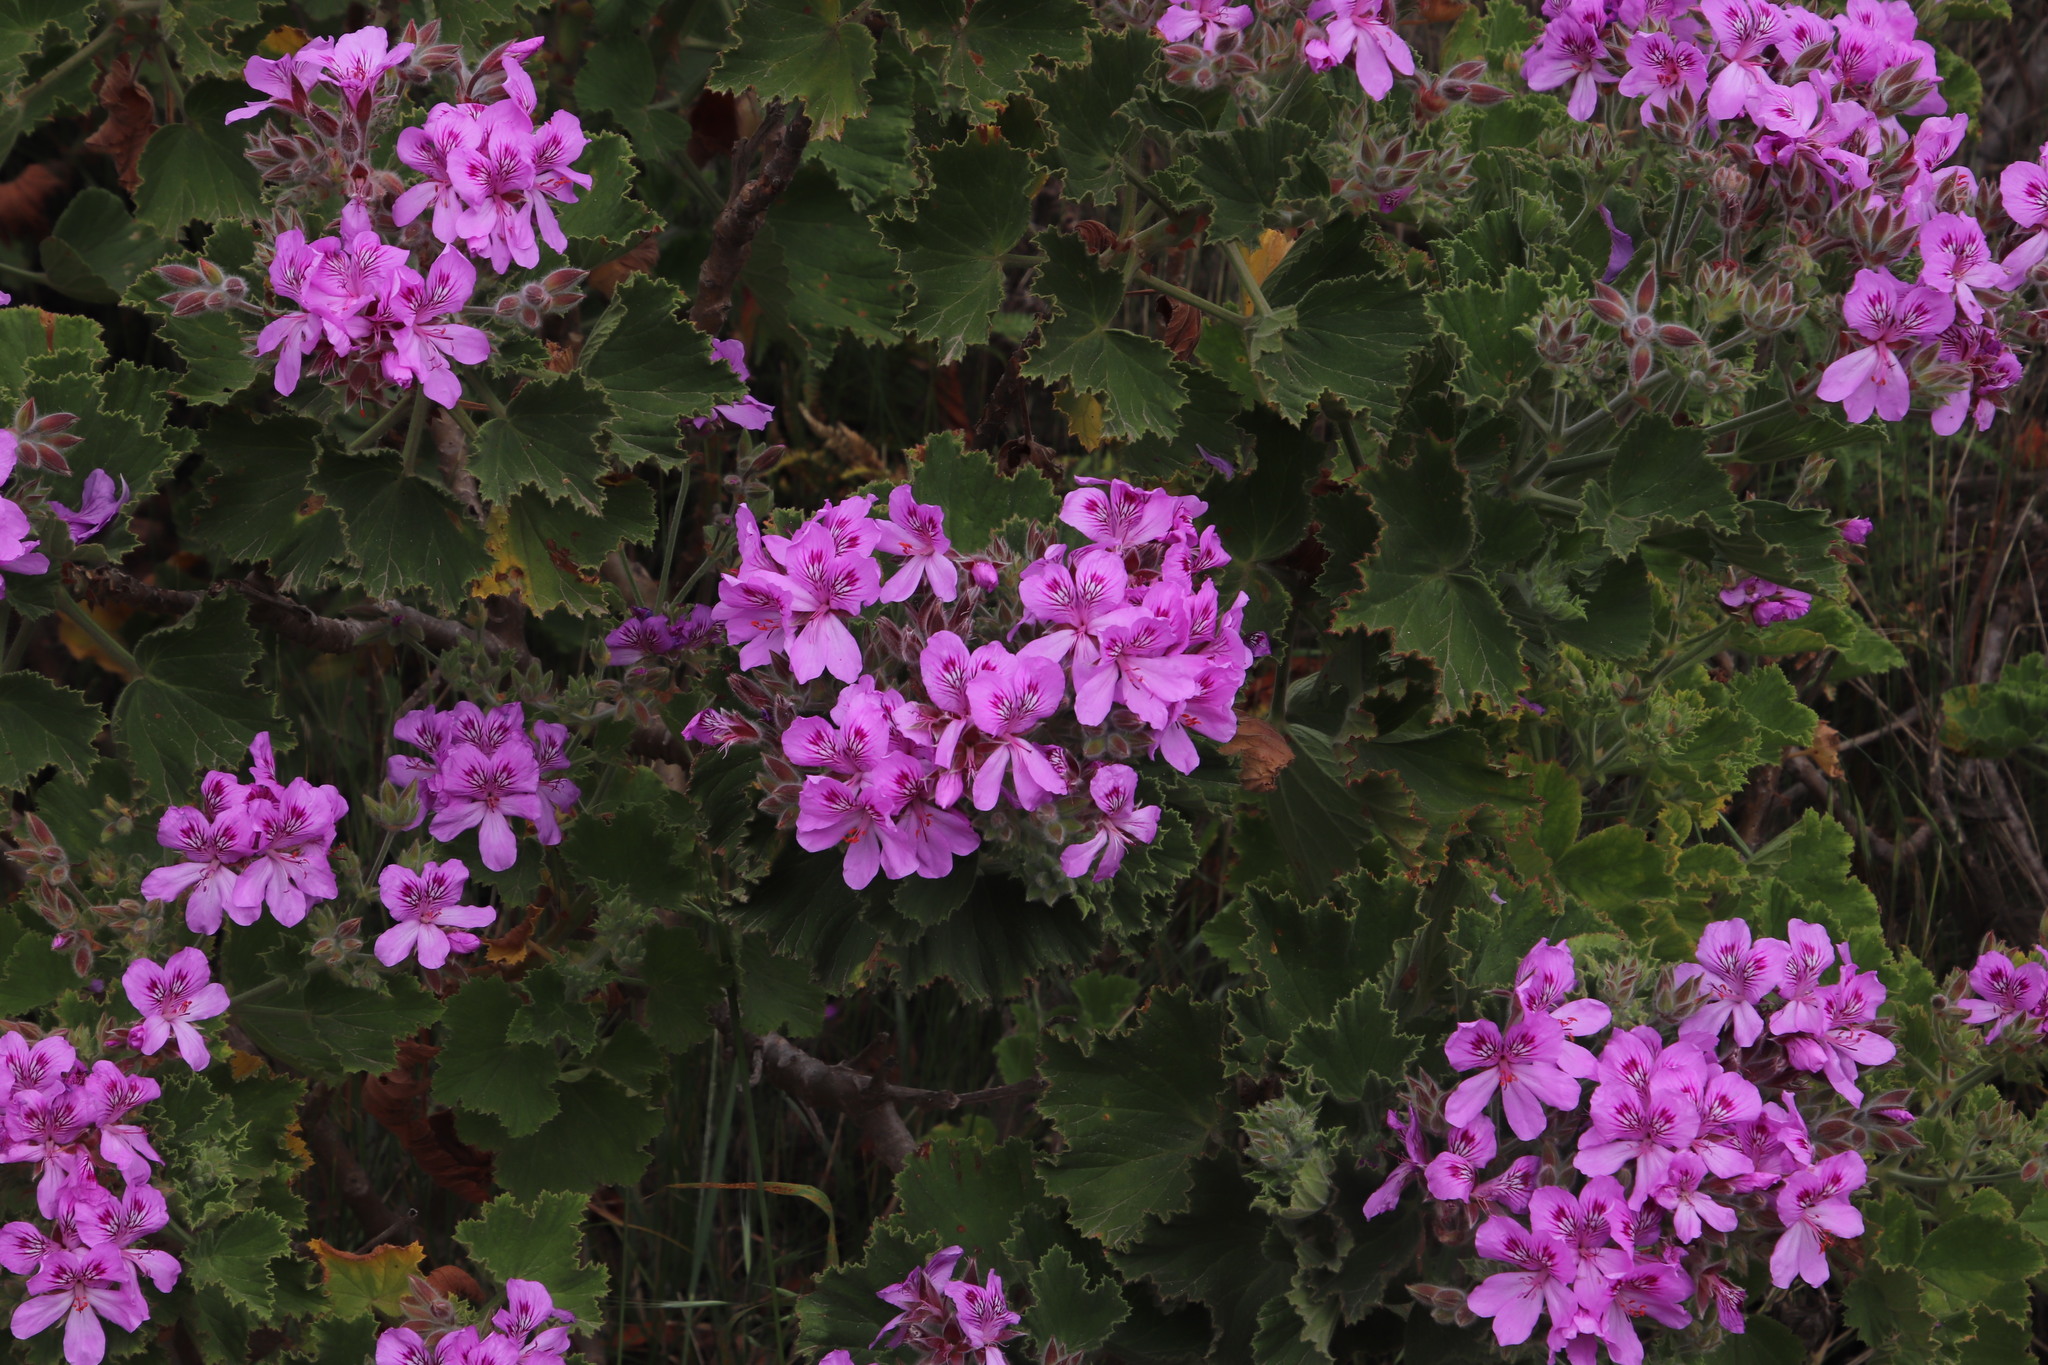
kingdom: Plantae
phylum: Tracheophyta
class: Magnoliopsida
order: Geraniales
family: Geraniaceae
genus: Pelargonium
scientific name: Pelargonium cucullatum
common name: Tree pelargonium
